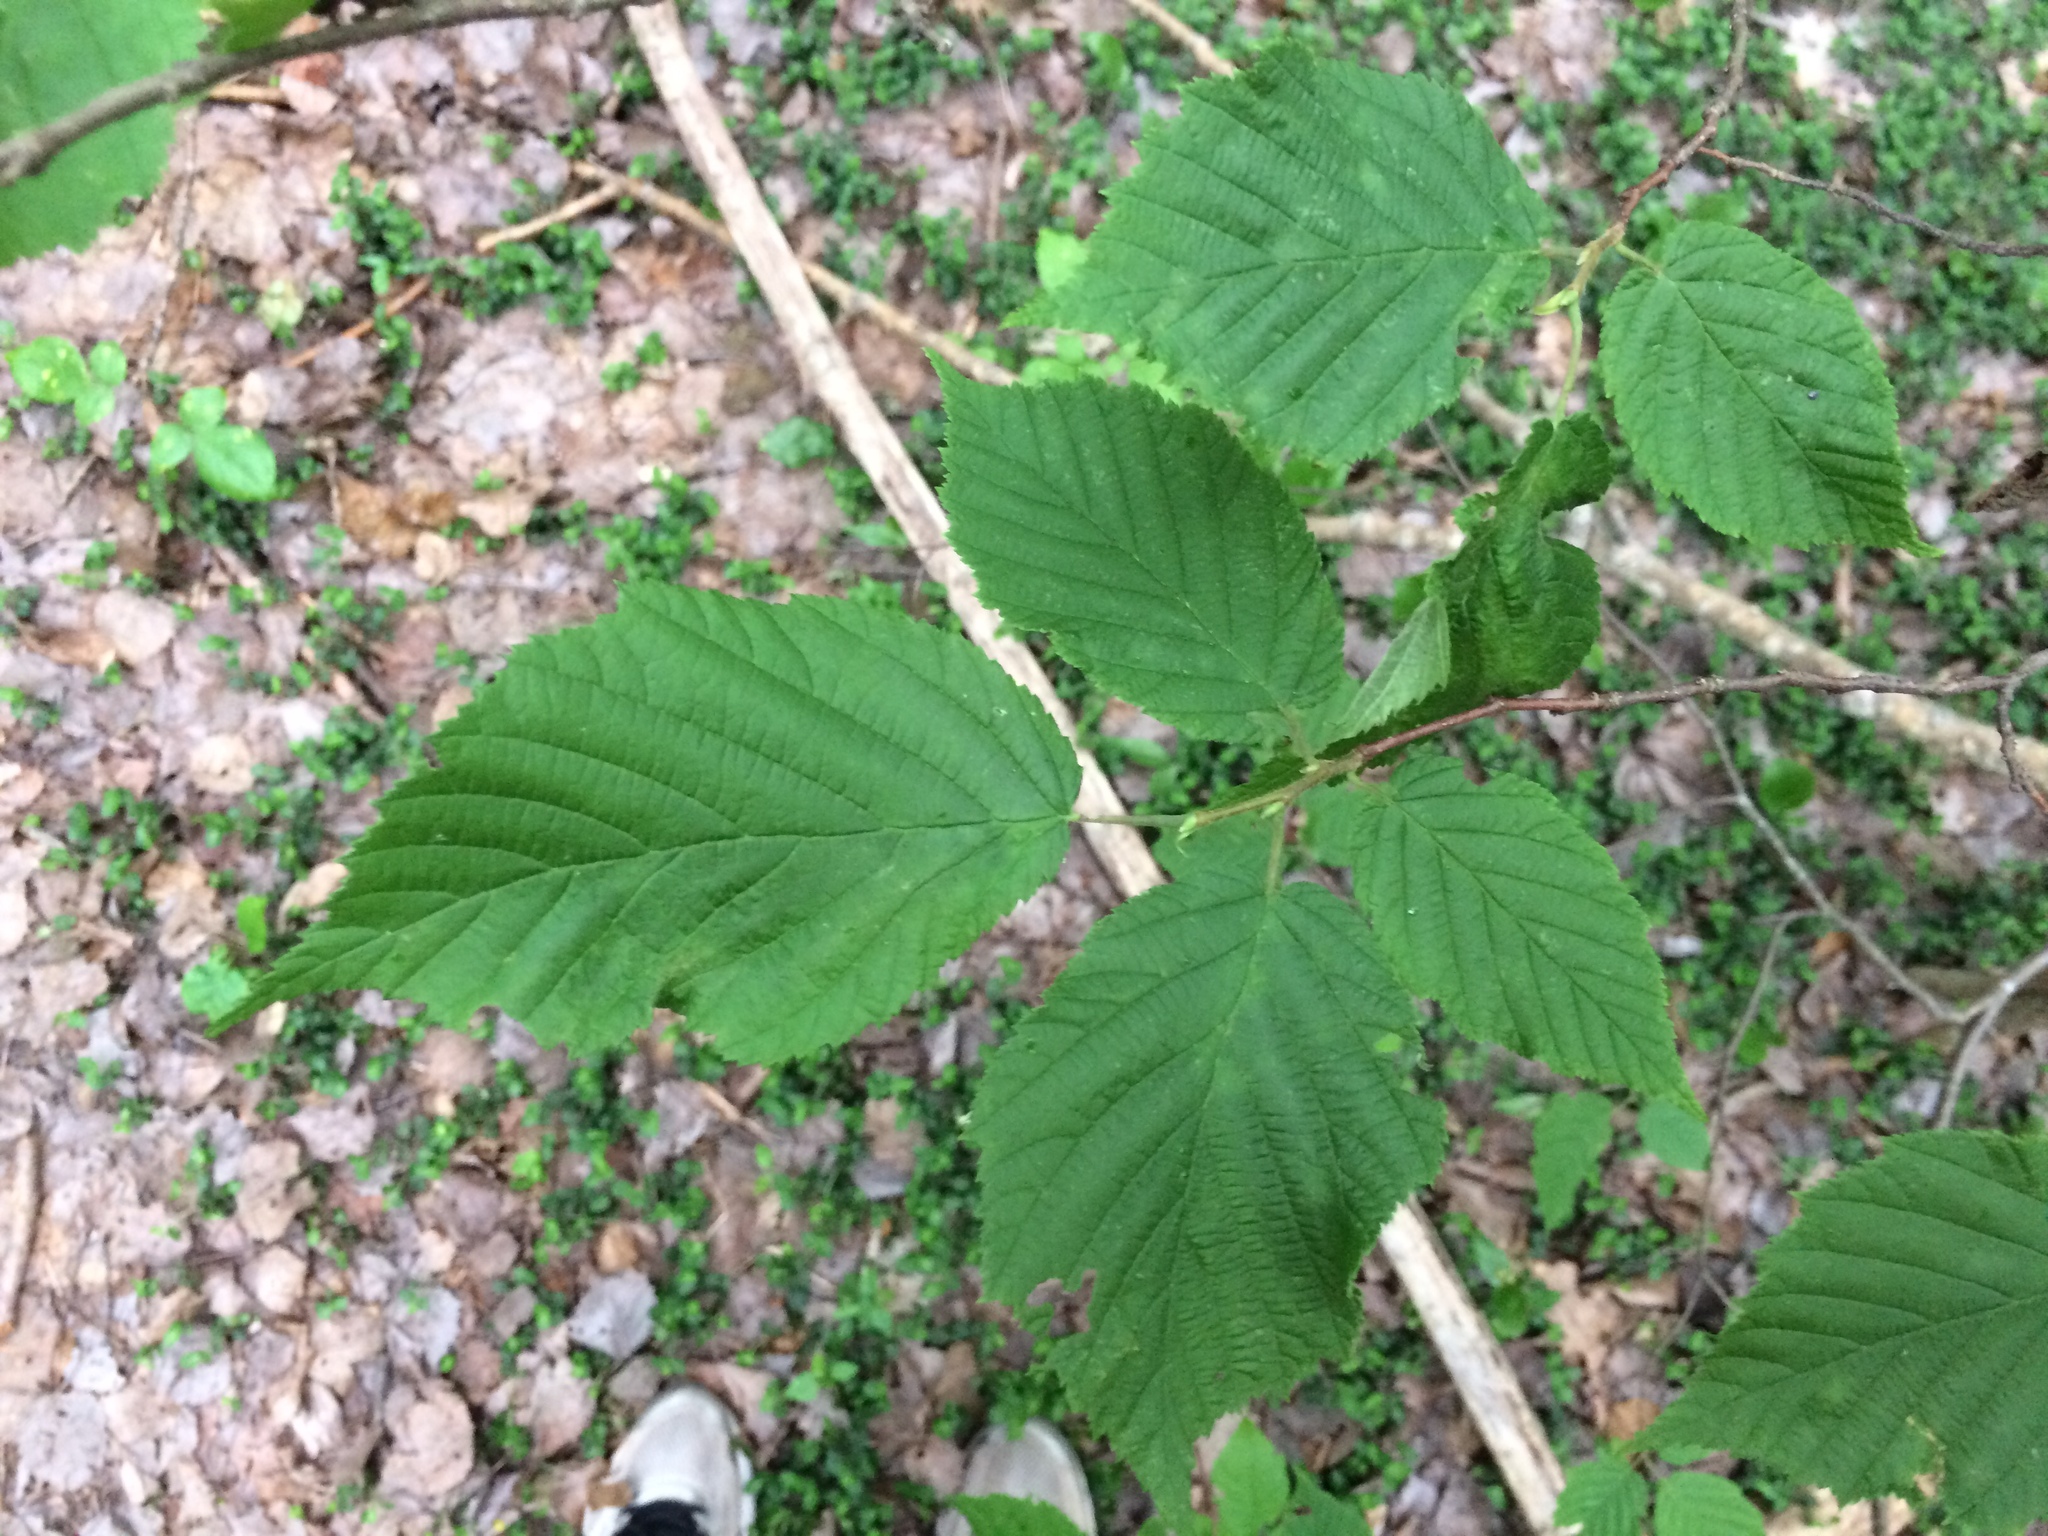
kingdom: Plantae
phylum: Tracheophyta
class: Magnoliopsida
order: Fagales
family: Betulaceae
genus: Corylus
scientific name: Corylus cornuta
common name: Beaked hazel
